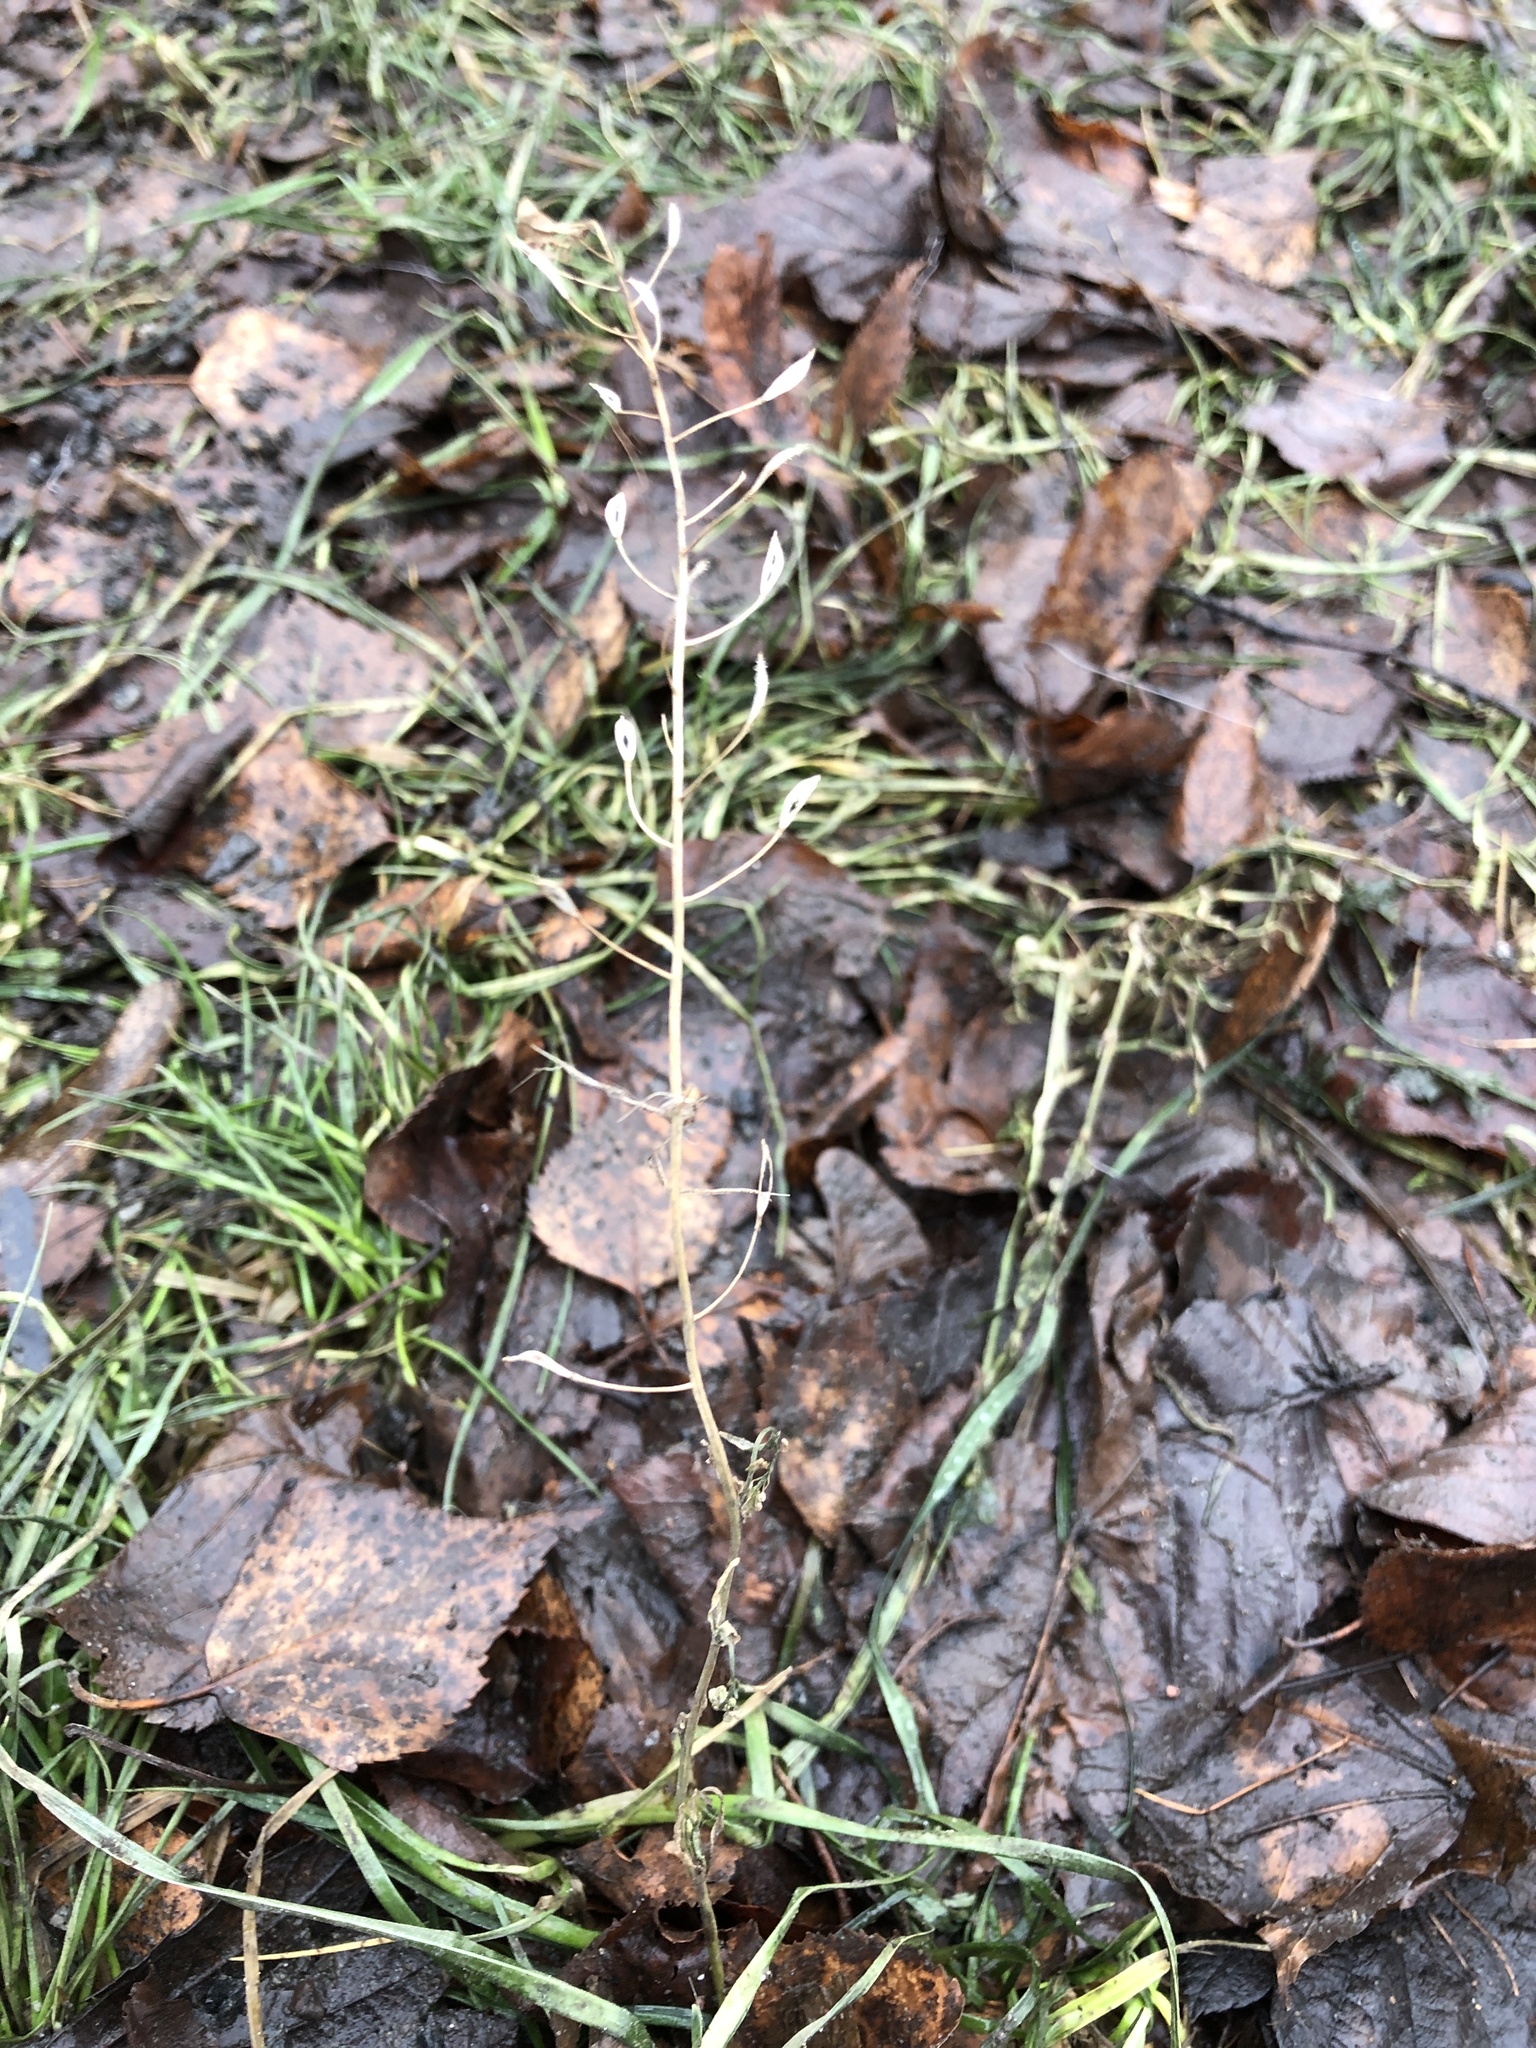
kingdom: Plantae
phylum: Tracheophyta
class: Magnoliopsida
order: Brassicales
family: Brassicaceae
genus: Capsella
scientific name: Capsella bursa-pastoris
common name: Shepherd's purse
